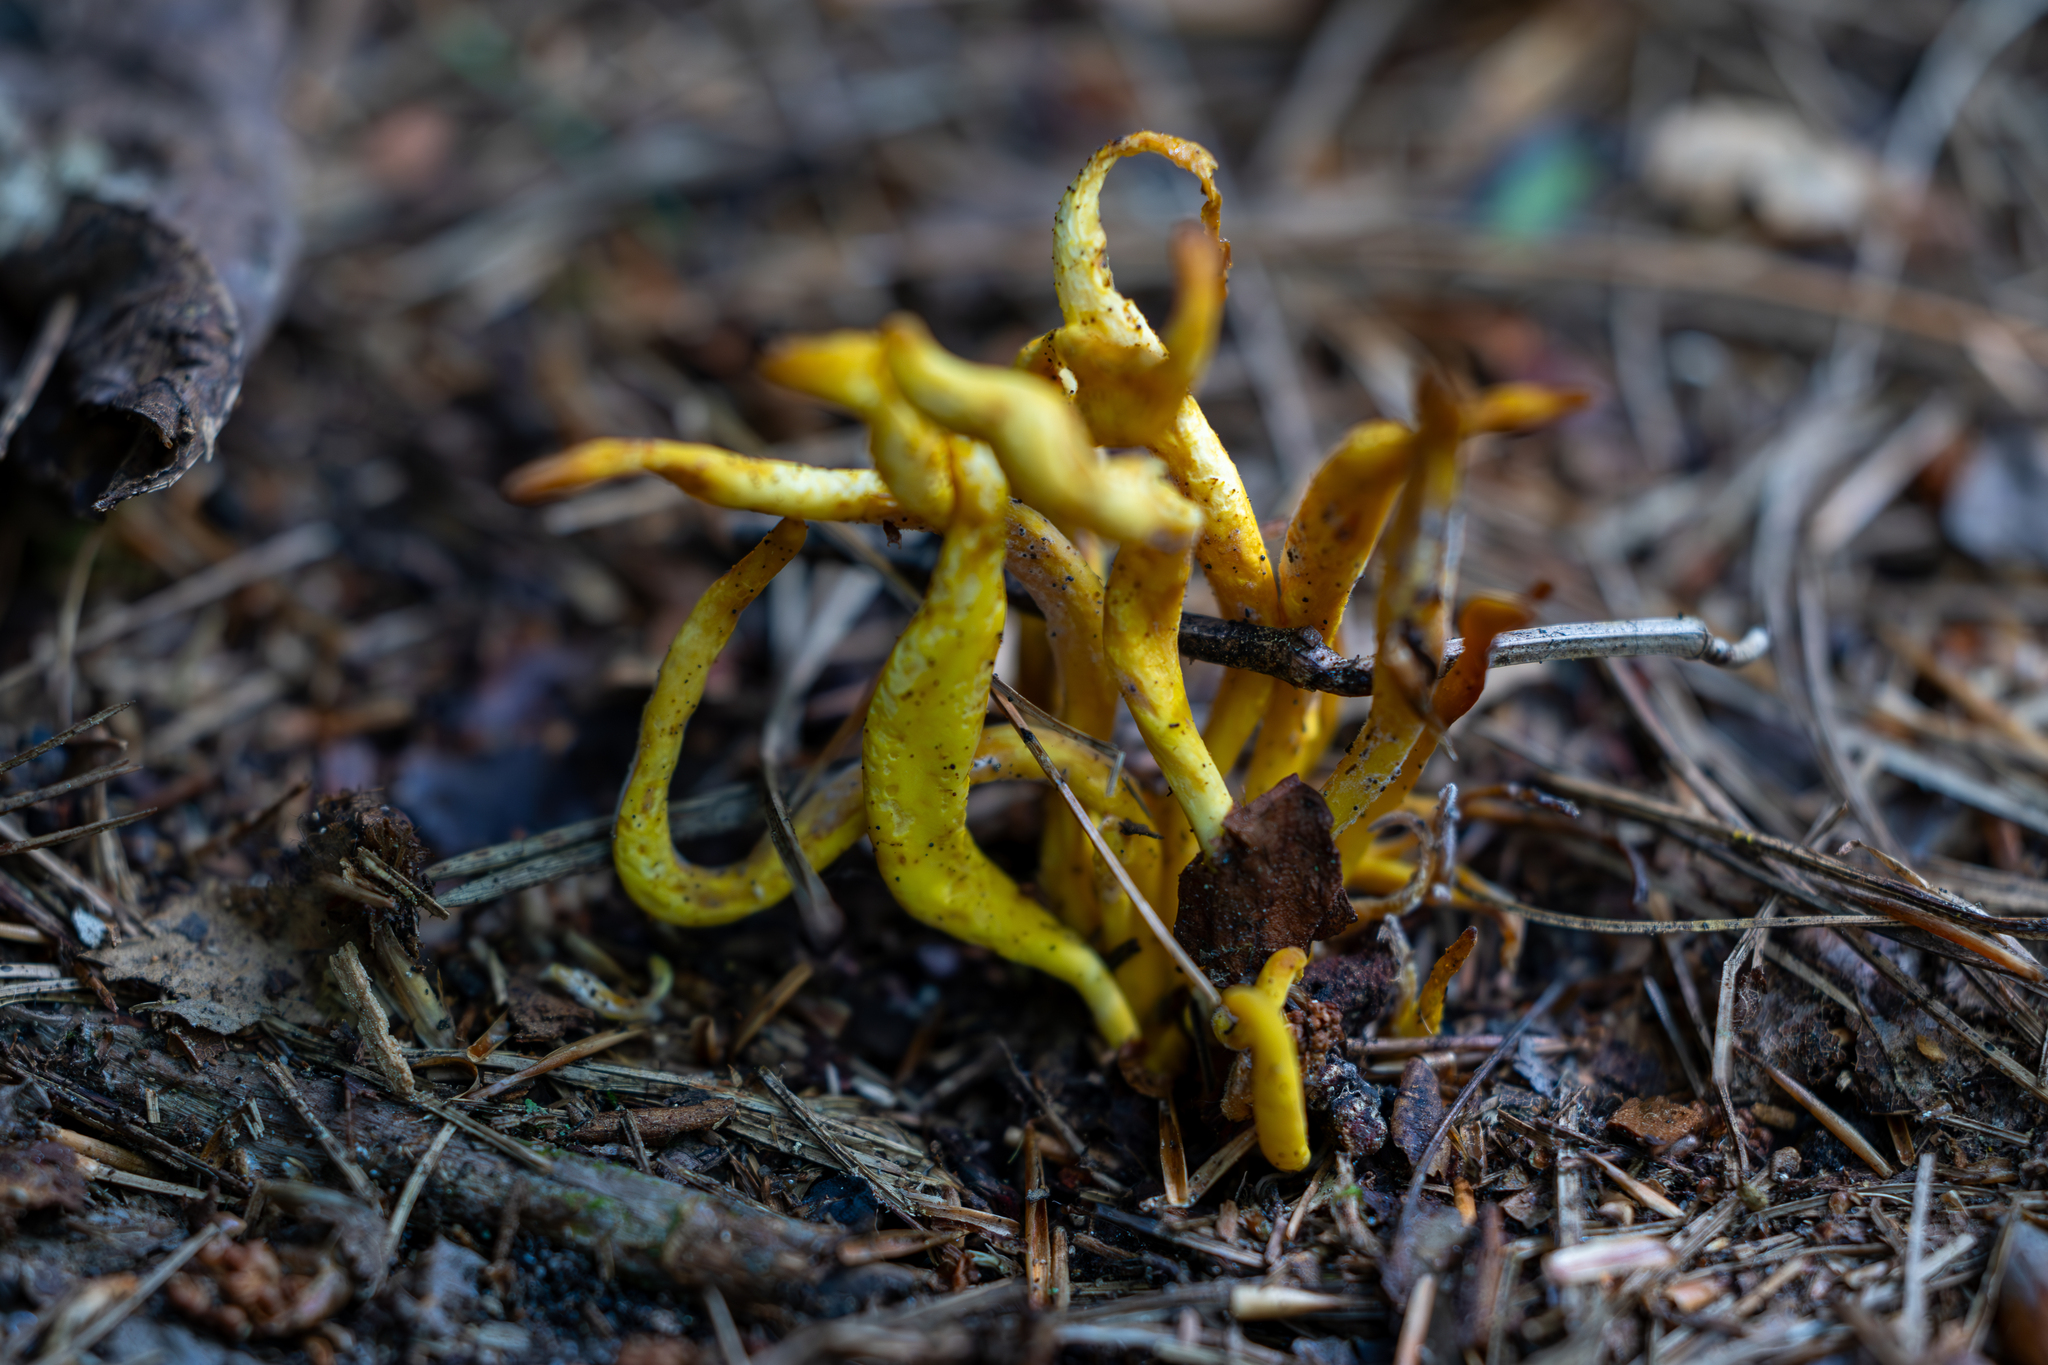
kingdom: Fungi
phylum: Basidiomycota
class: Agaricomycetes
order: Agaricales
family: Clavariaceae
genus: Clavulinopsis
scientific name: Clavulinopsis fusiformis
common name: Golden spindles
